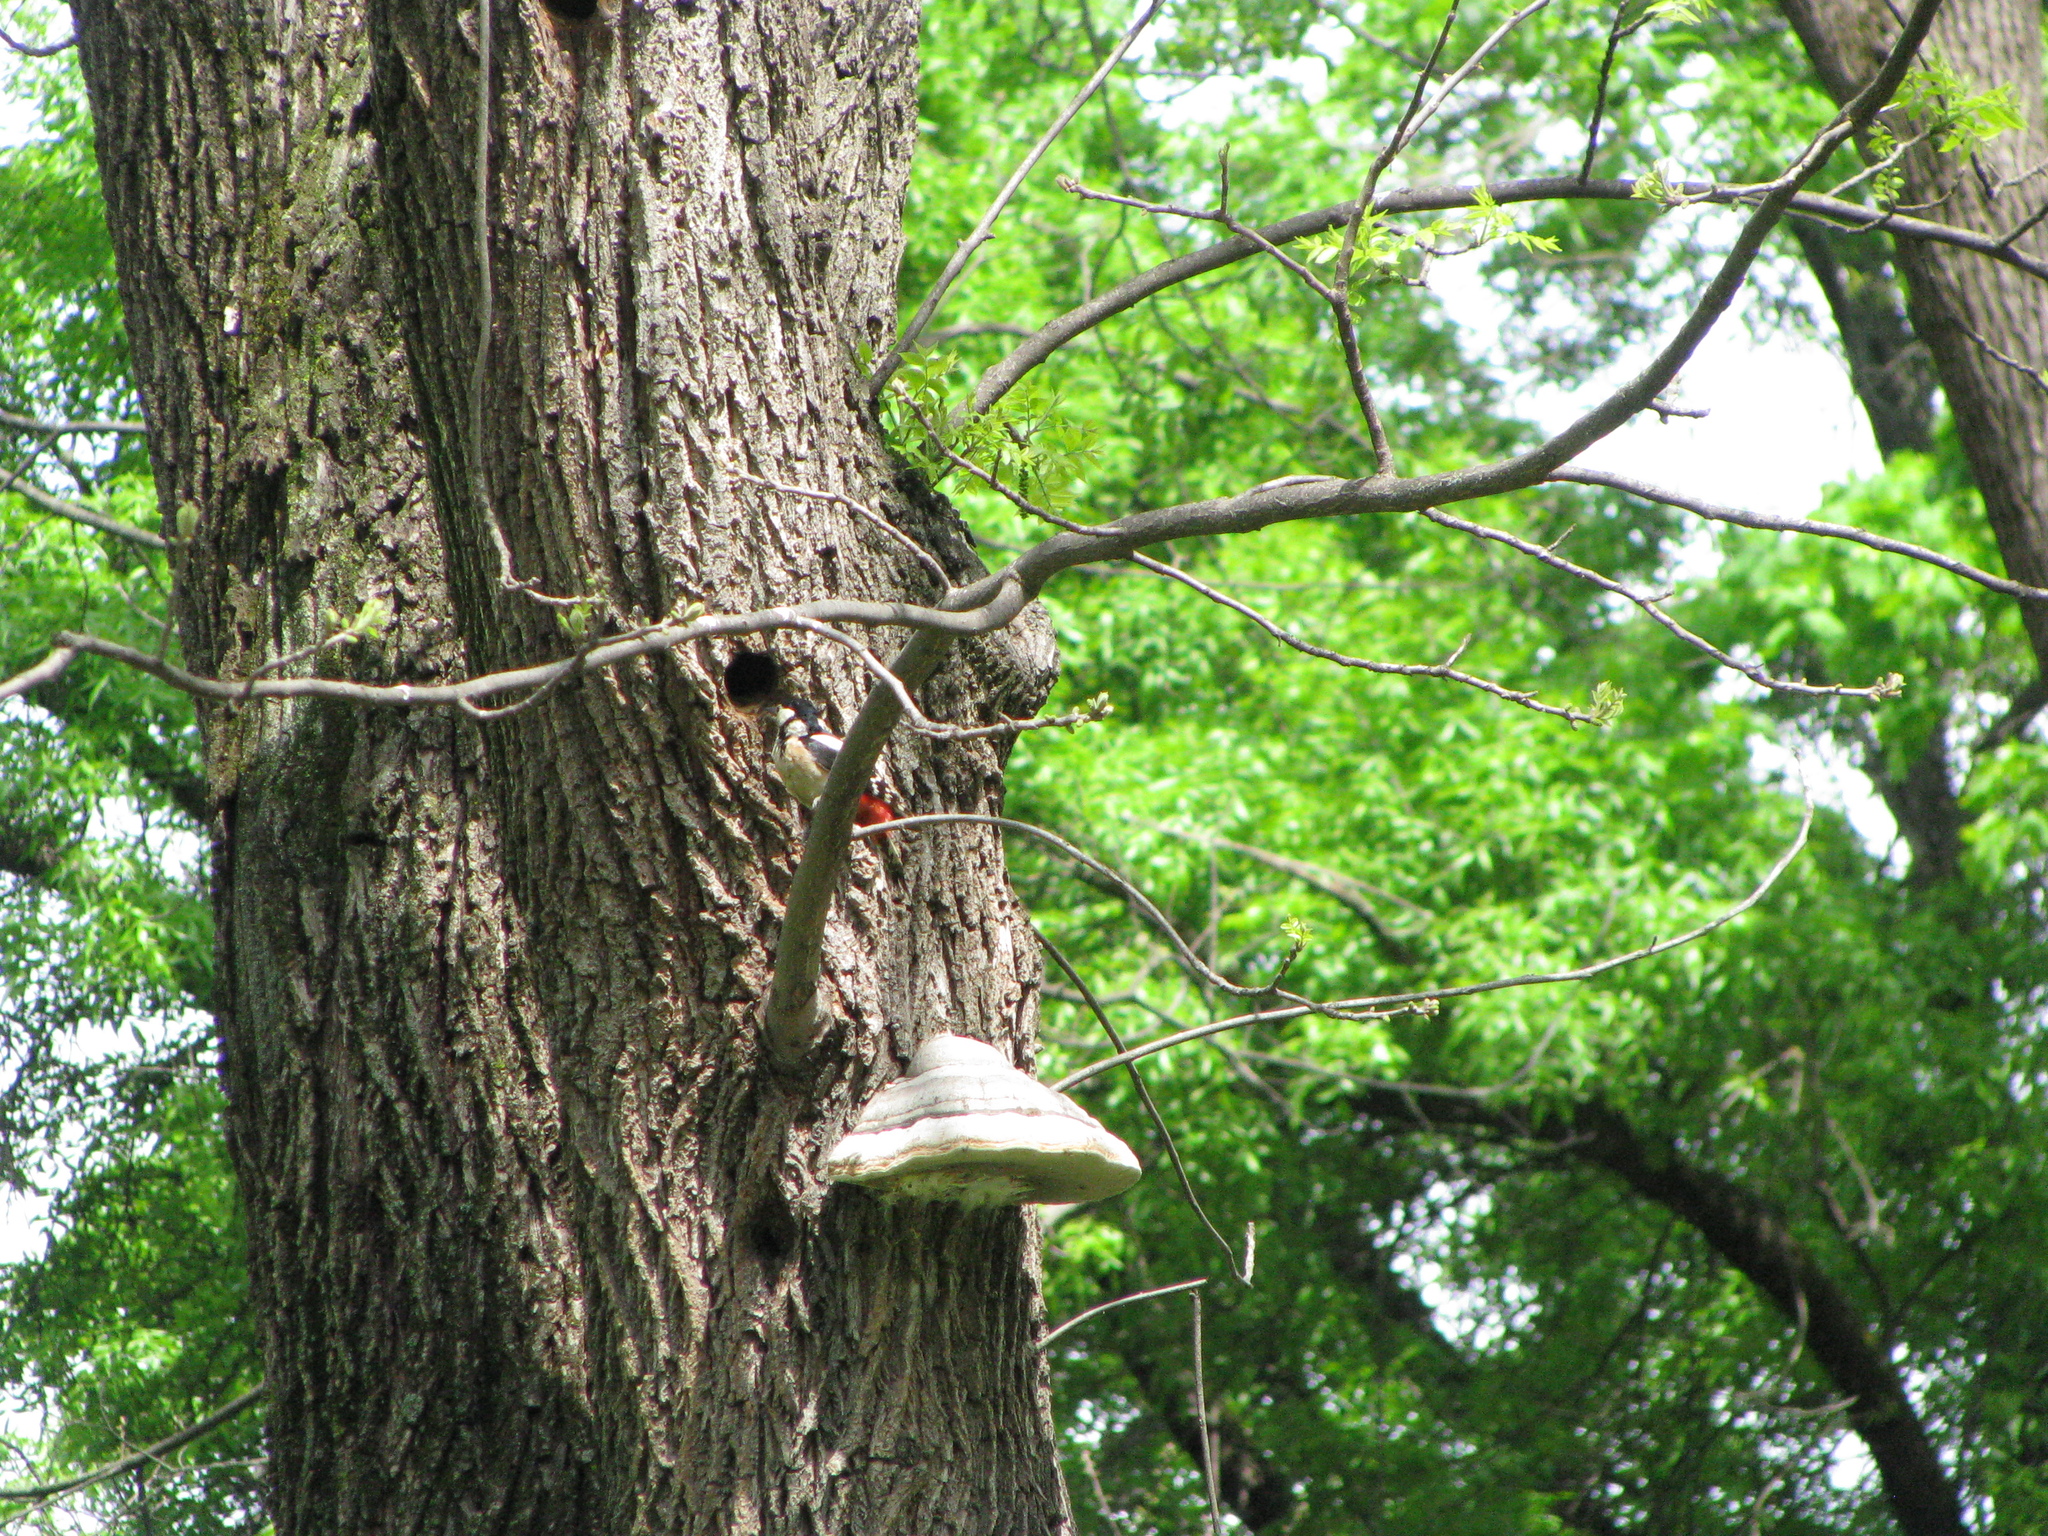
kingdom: Animalia
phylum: Chordata
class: Aves
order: Piciformes
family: Picidae
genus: Dendrocopos
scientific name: Dendrocopos major
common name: Great spotted woodpecker
